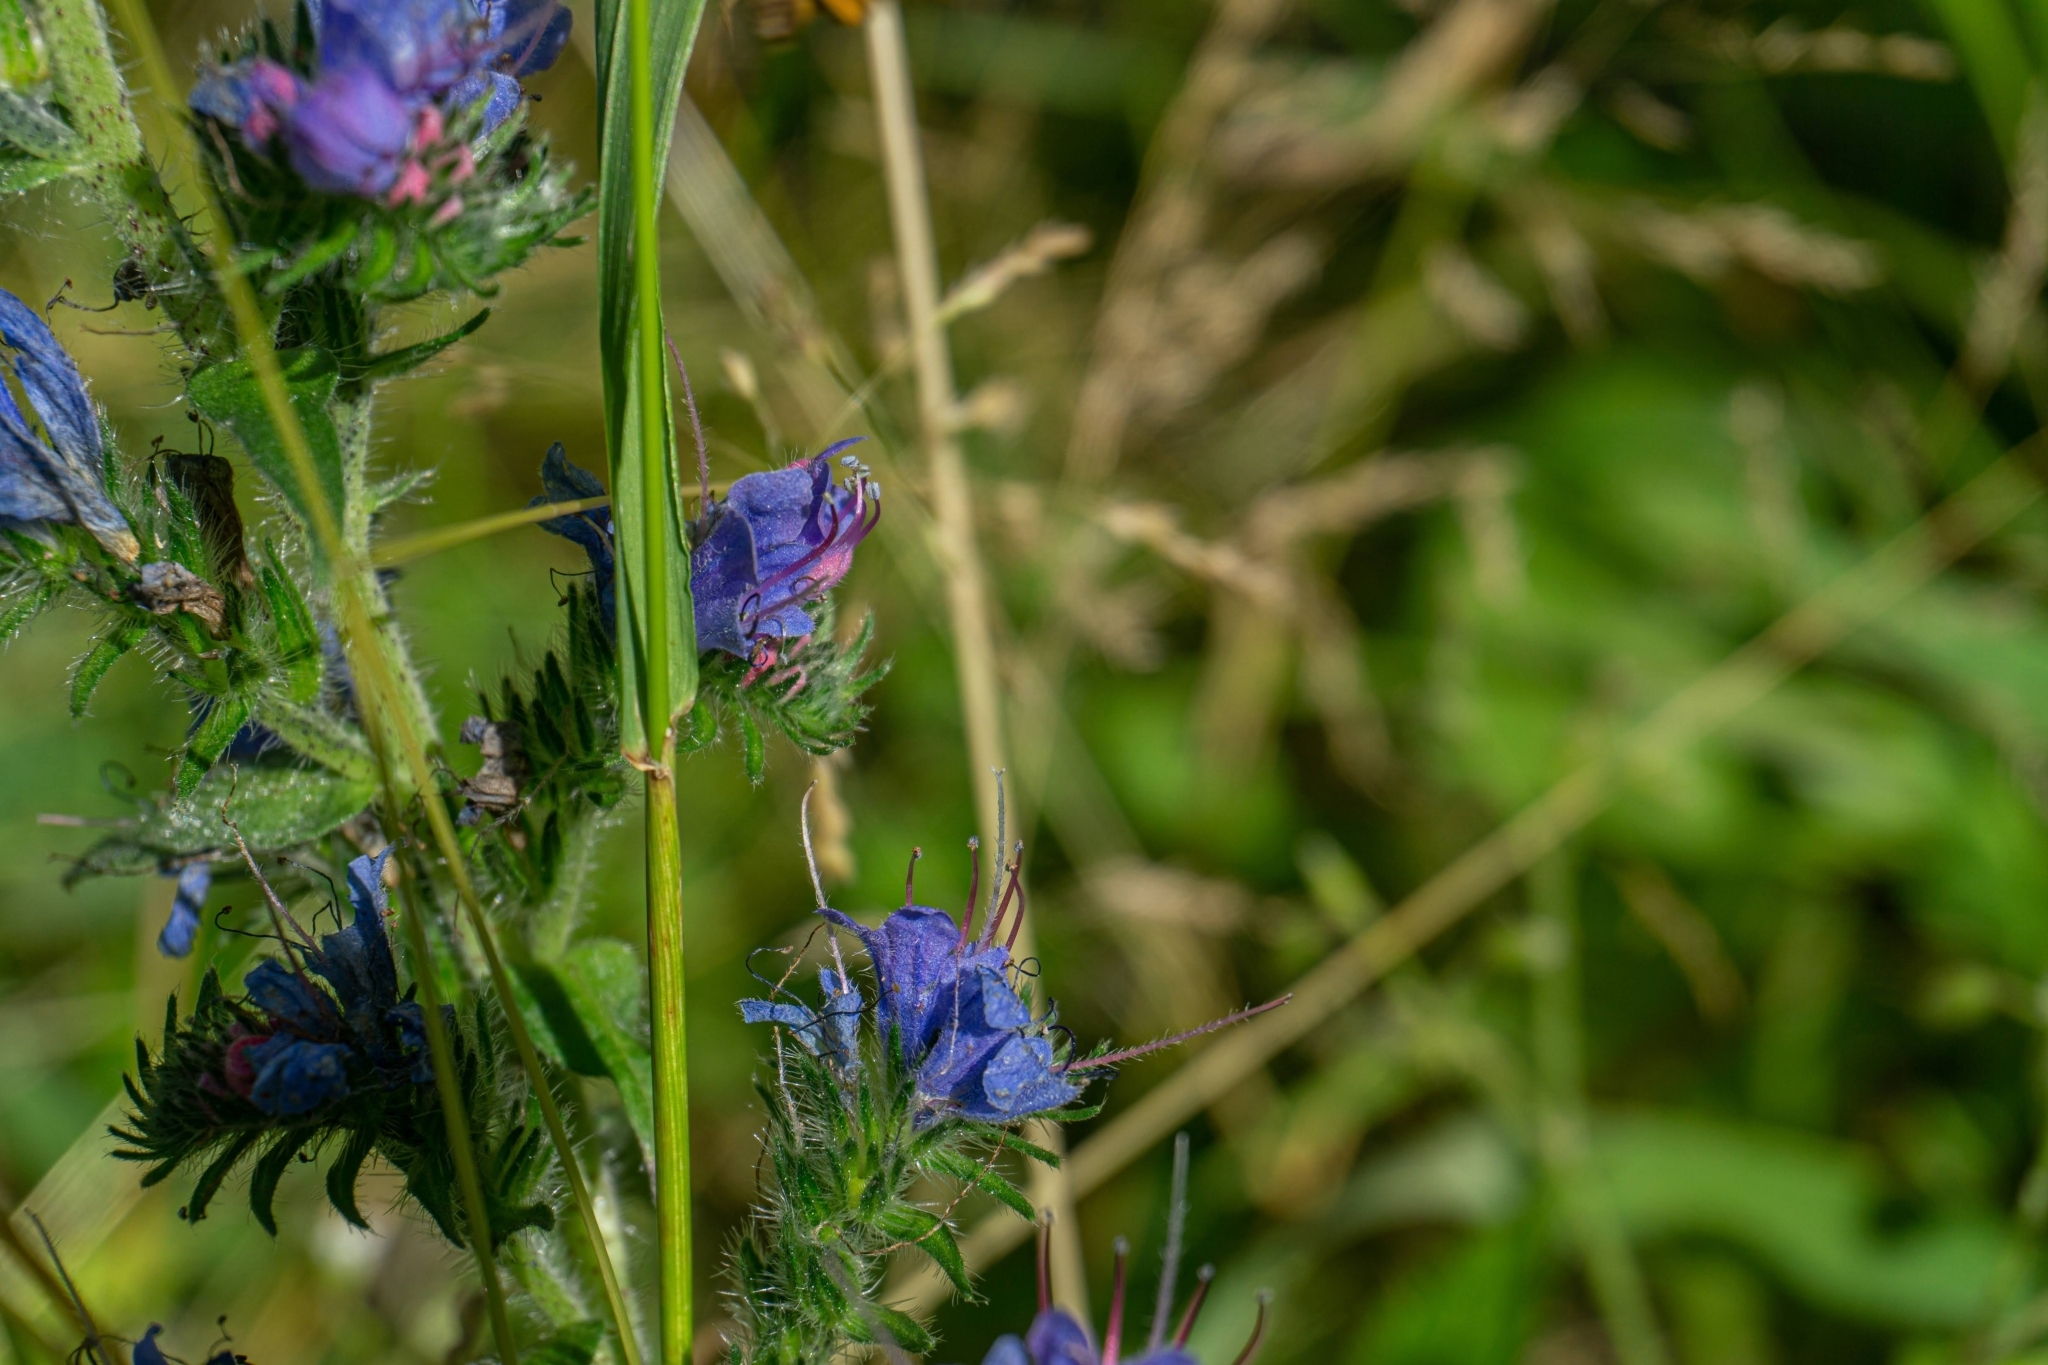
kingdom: Plantae
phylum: Tracheophyta
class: Magnoliopsida
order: Boraginales
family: Boraginaceae
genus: Echium
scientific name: Echium vulgare
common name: Common viper's bugloss
